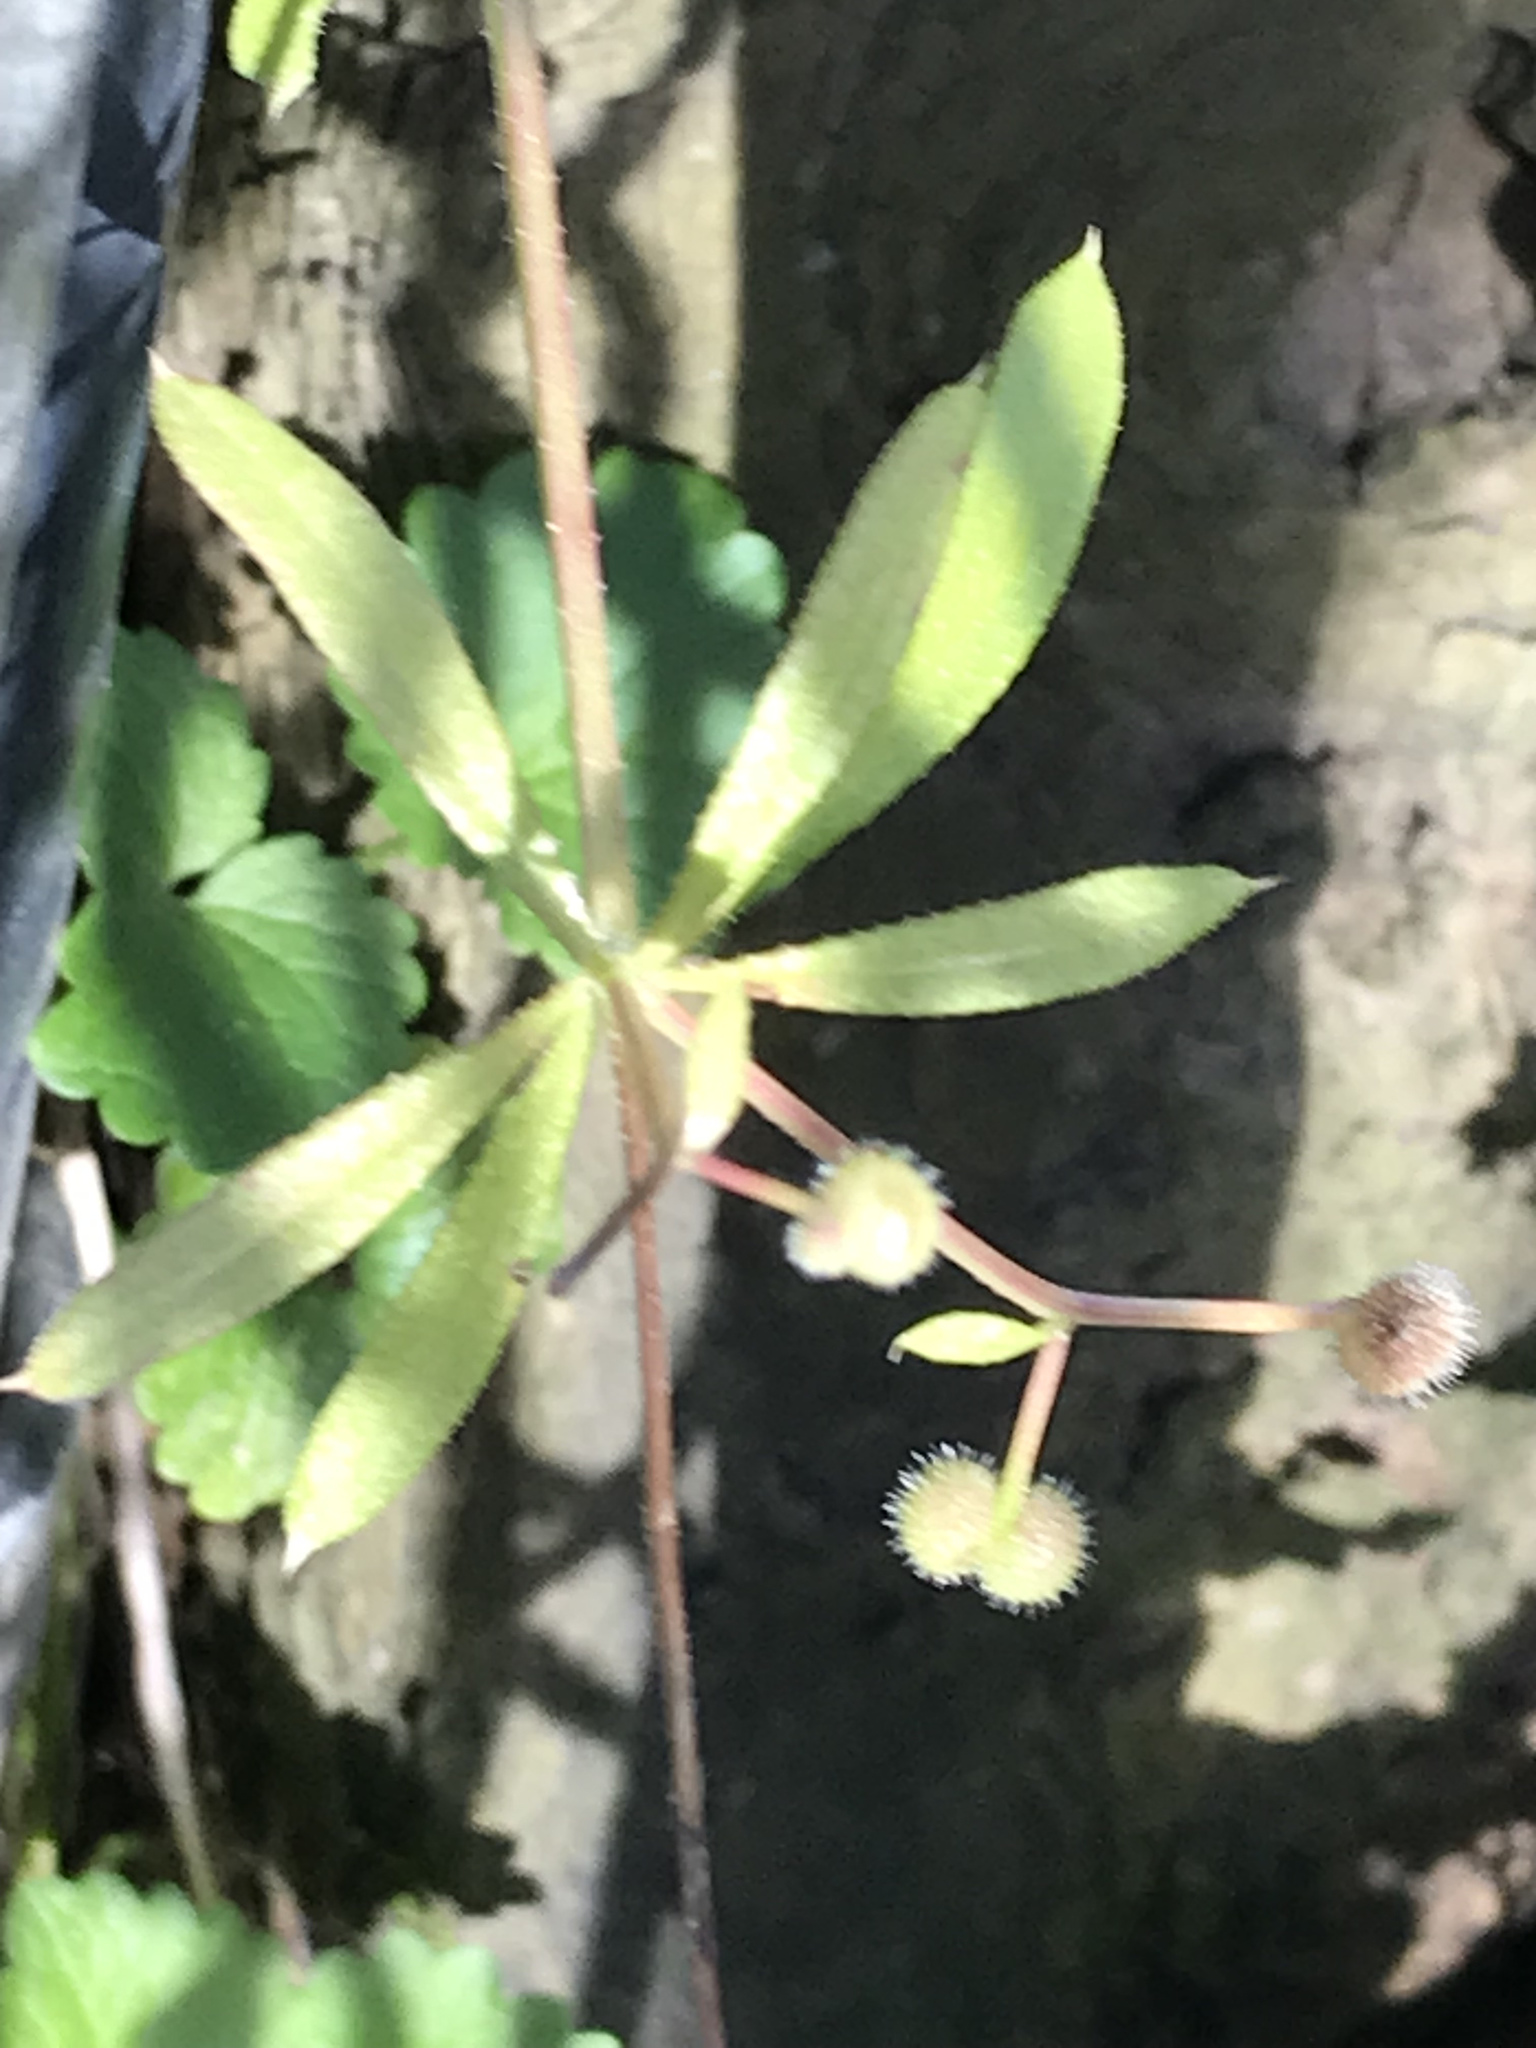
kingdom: Plantae
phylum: Tracheophyta
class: Magnoliopsida
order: Gentianales
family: Rubiaceae
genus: Galium
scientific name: Galium aparine
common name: Cleavers
